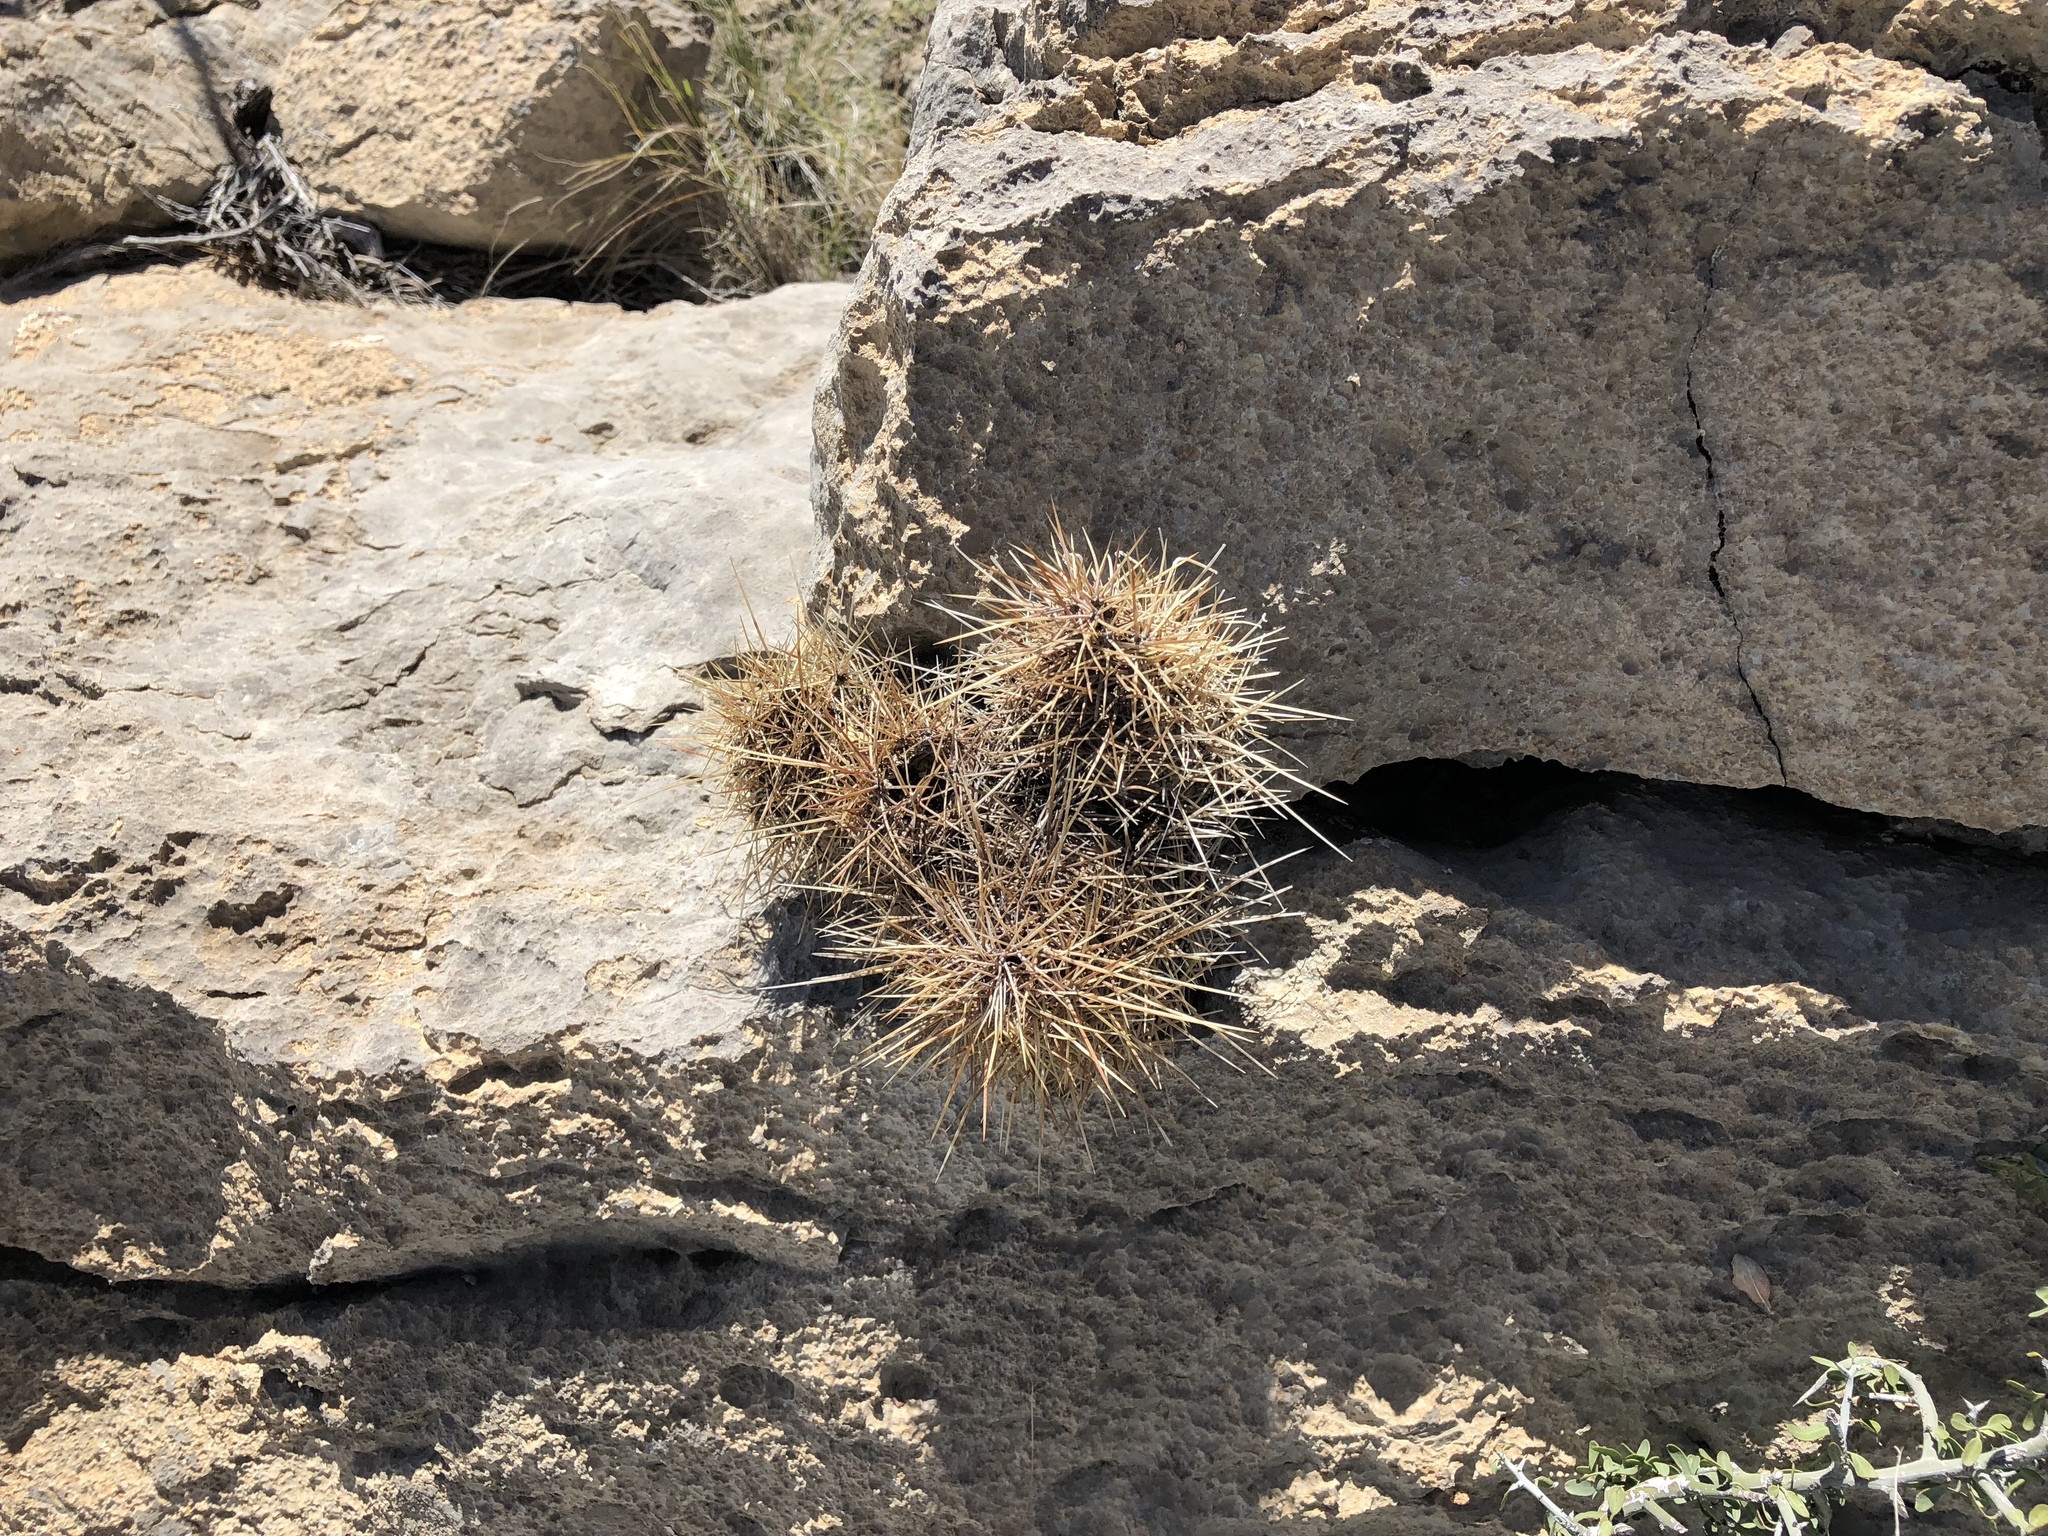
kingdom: Plantae
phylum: Tracheophyta
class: Magnoliopsida
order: Caryophyllales
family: Cactaceae
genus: Echinocereus
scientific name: Echinocereus coccineus
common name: Scarlet hedgehog cactus
